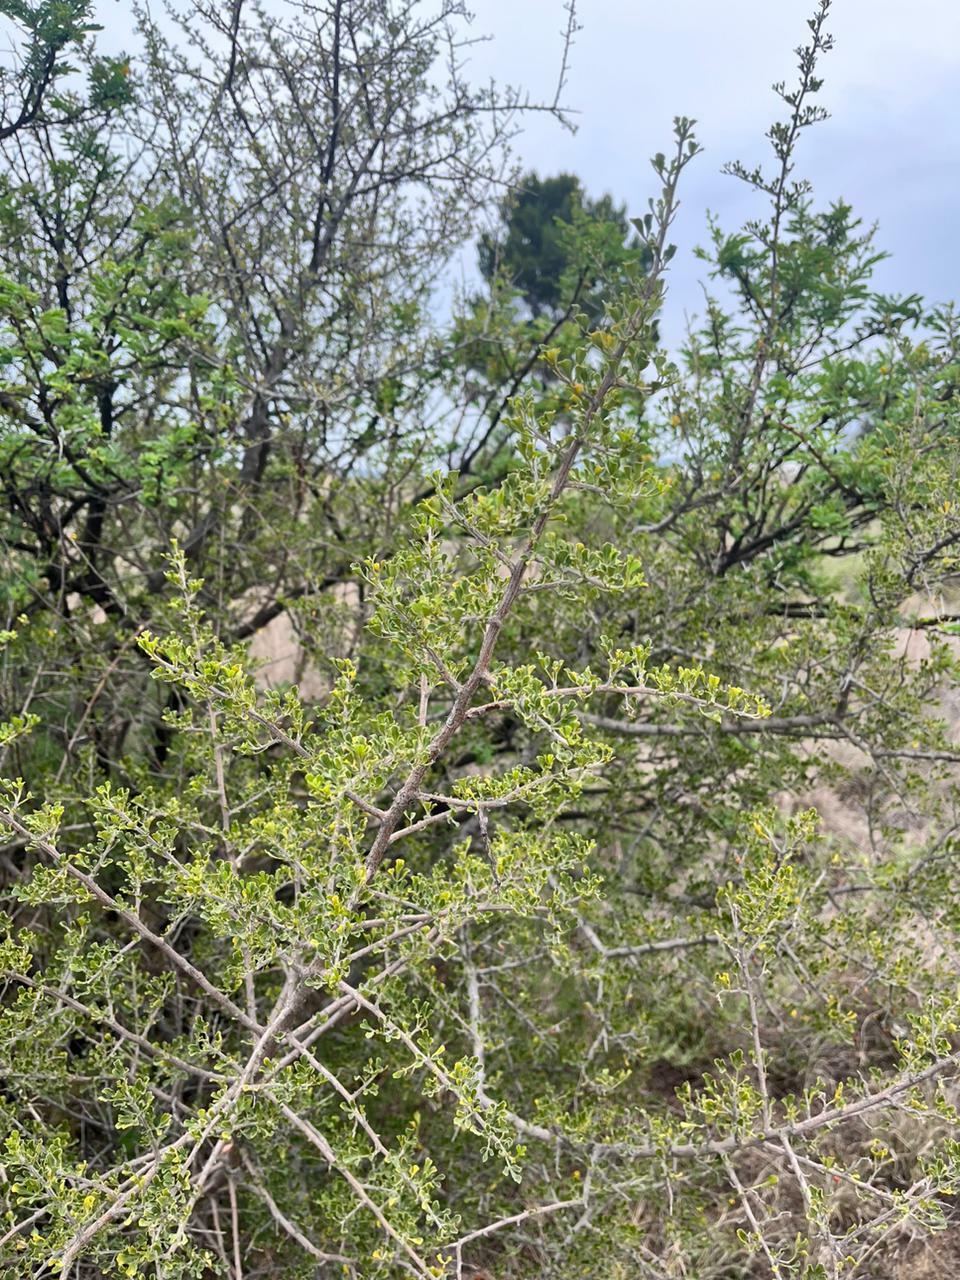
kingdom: Plantae
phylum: Tracheophyta
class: Magnoliopsida
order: Sapindales
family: Anacardiaceae
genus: Searsia
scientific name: Searsia burchellii
